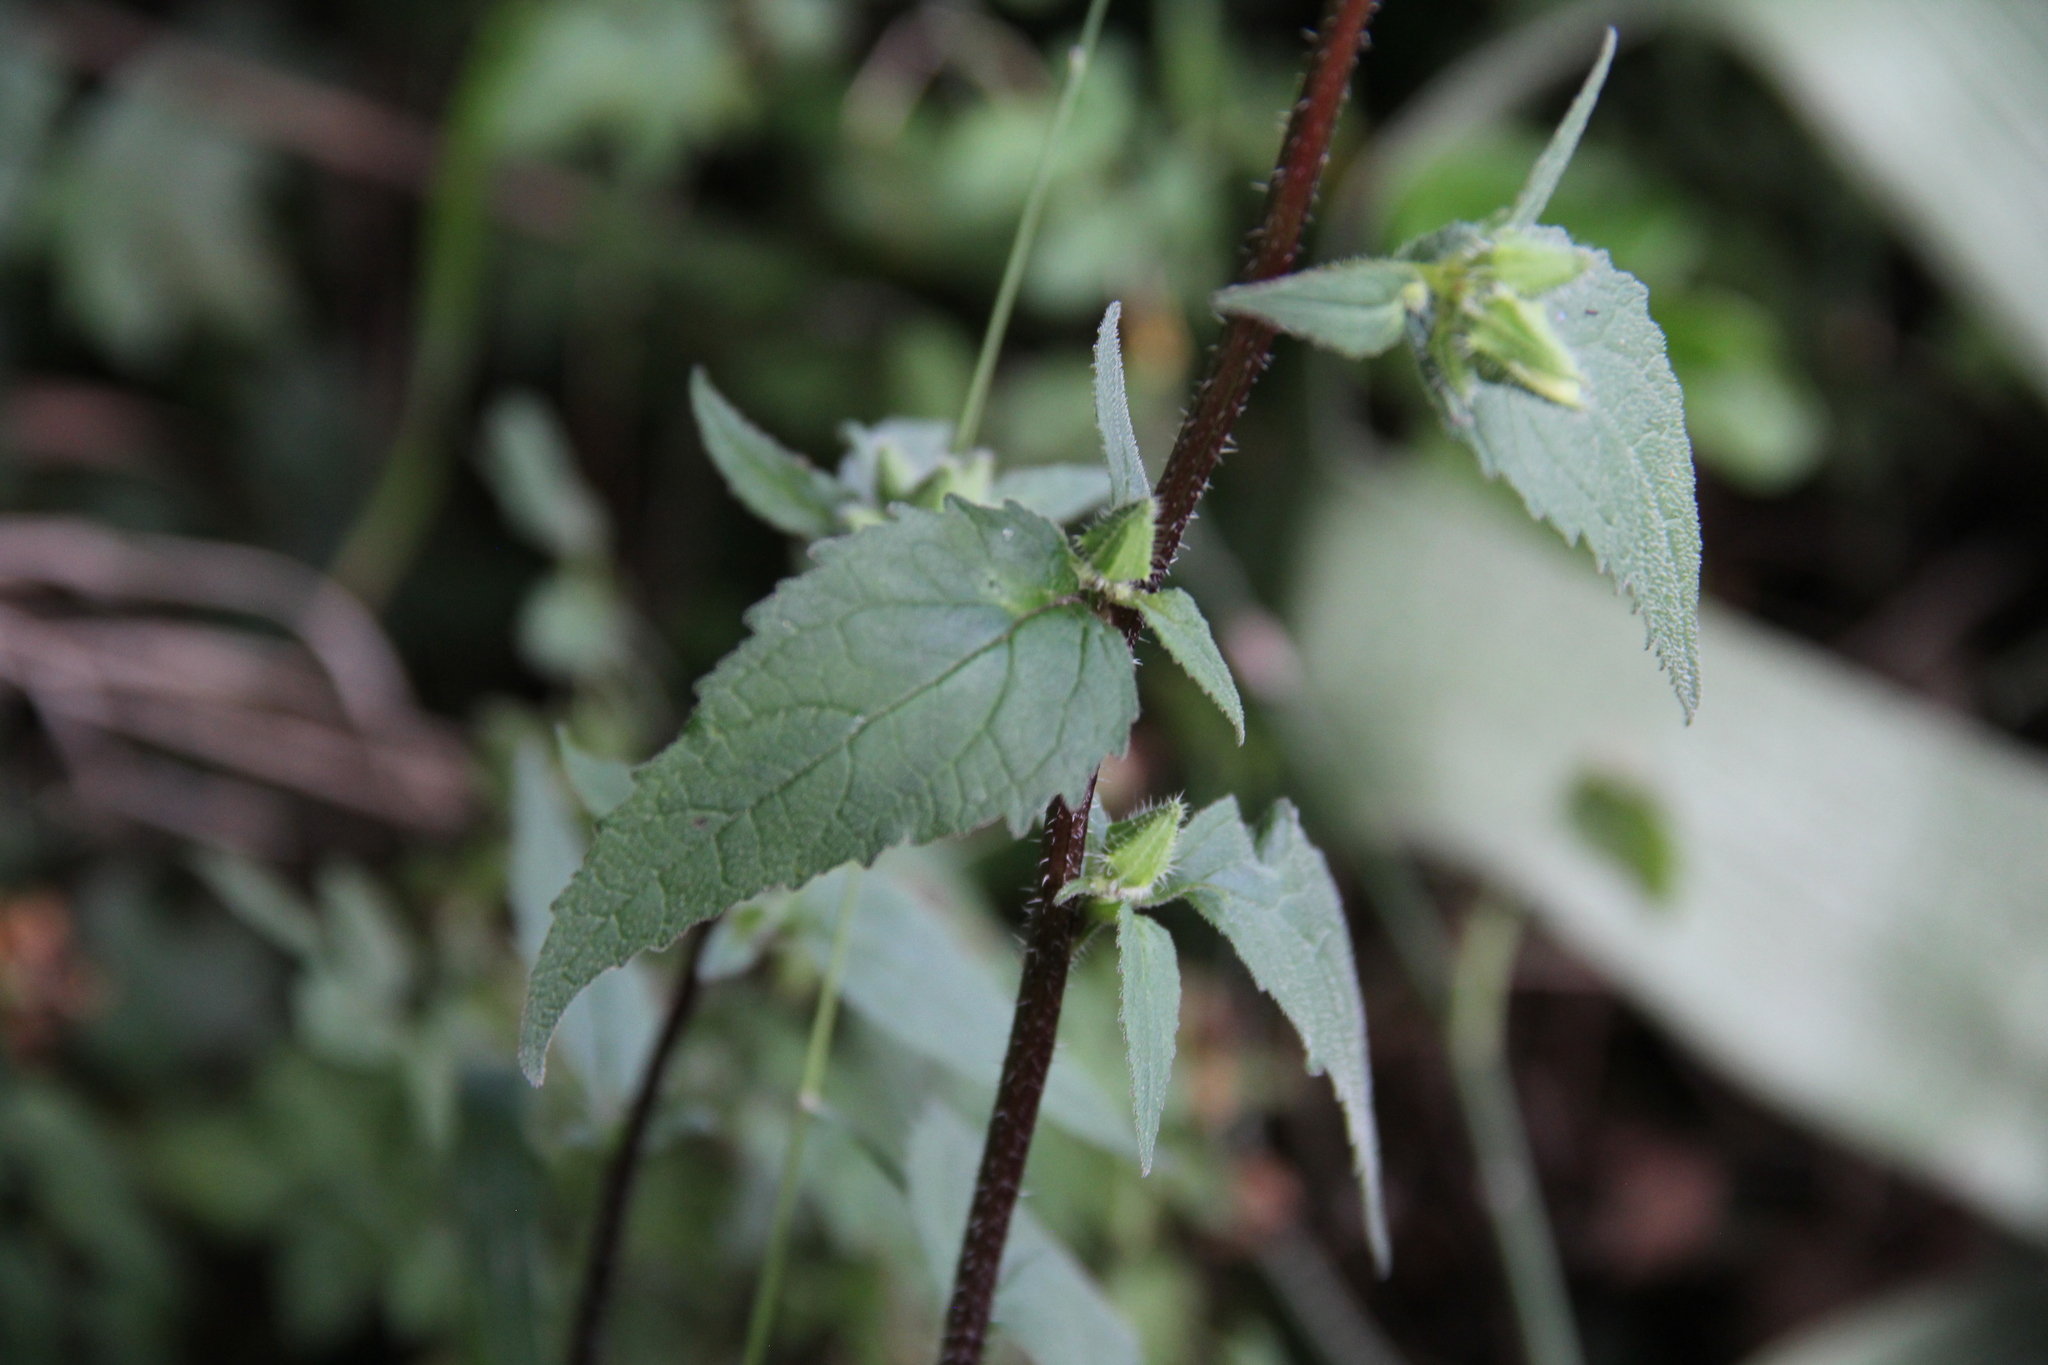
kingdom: Plantae
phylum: Tracheophyta
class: Magnoliopsida
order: Asterales
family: Campanulaceae
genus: Campanula
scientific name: Campanula trachelium
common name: Nettle-leaved bellflower
